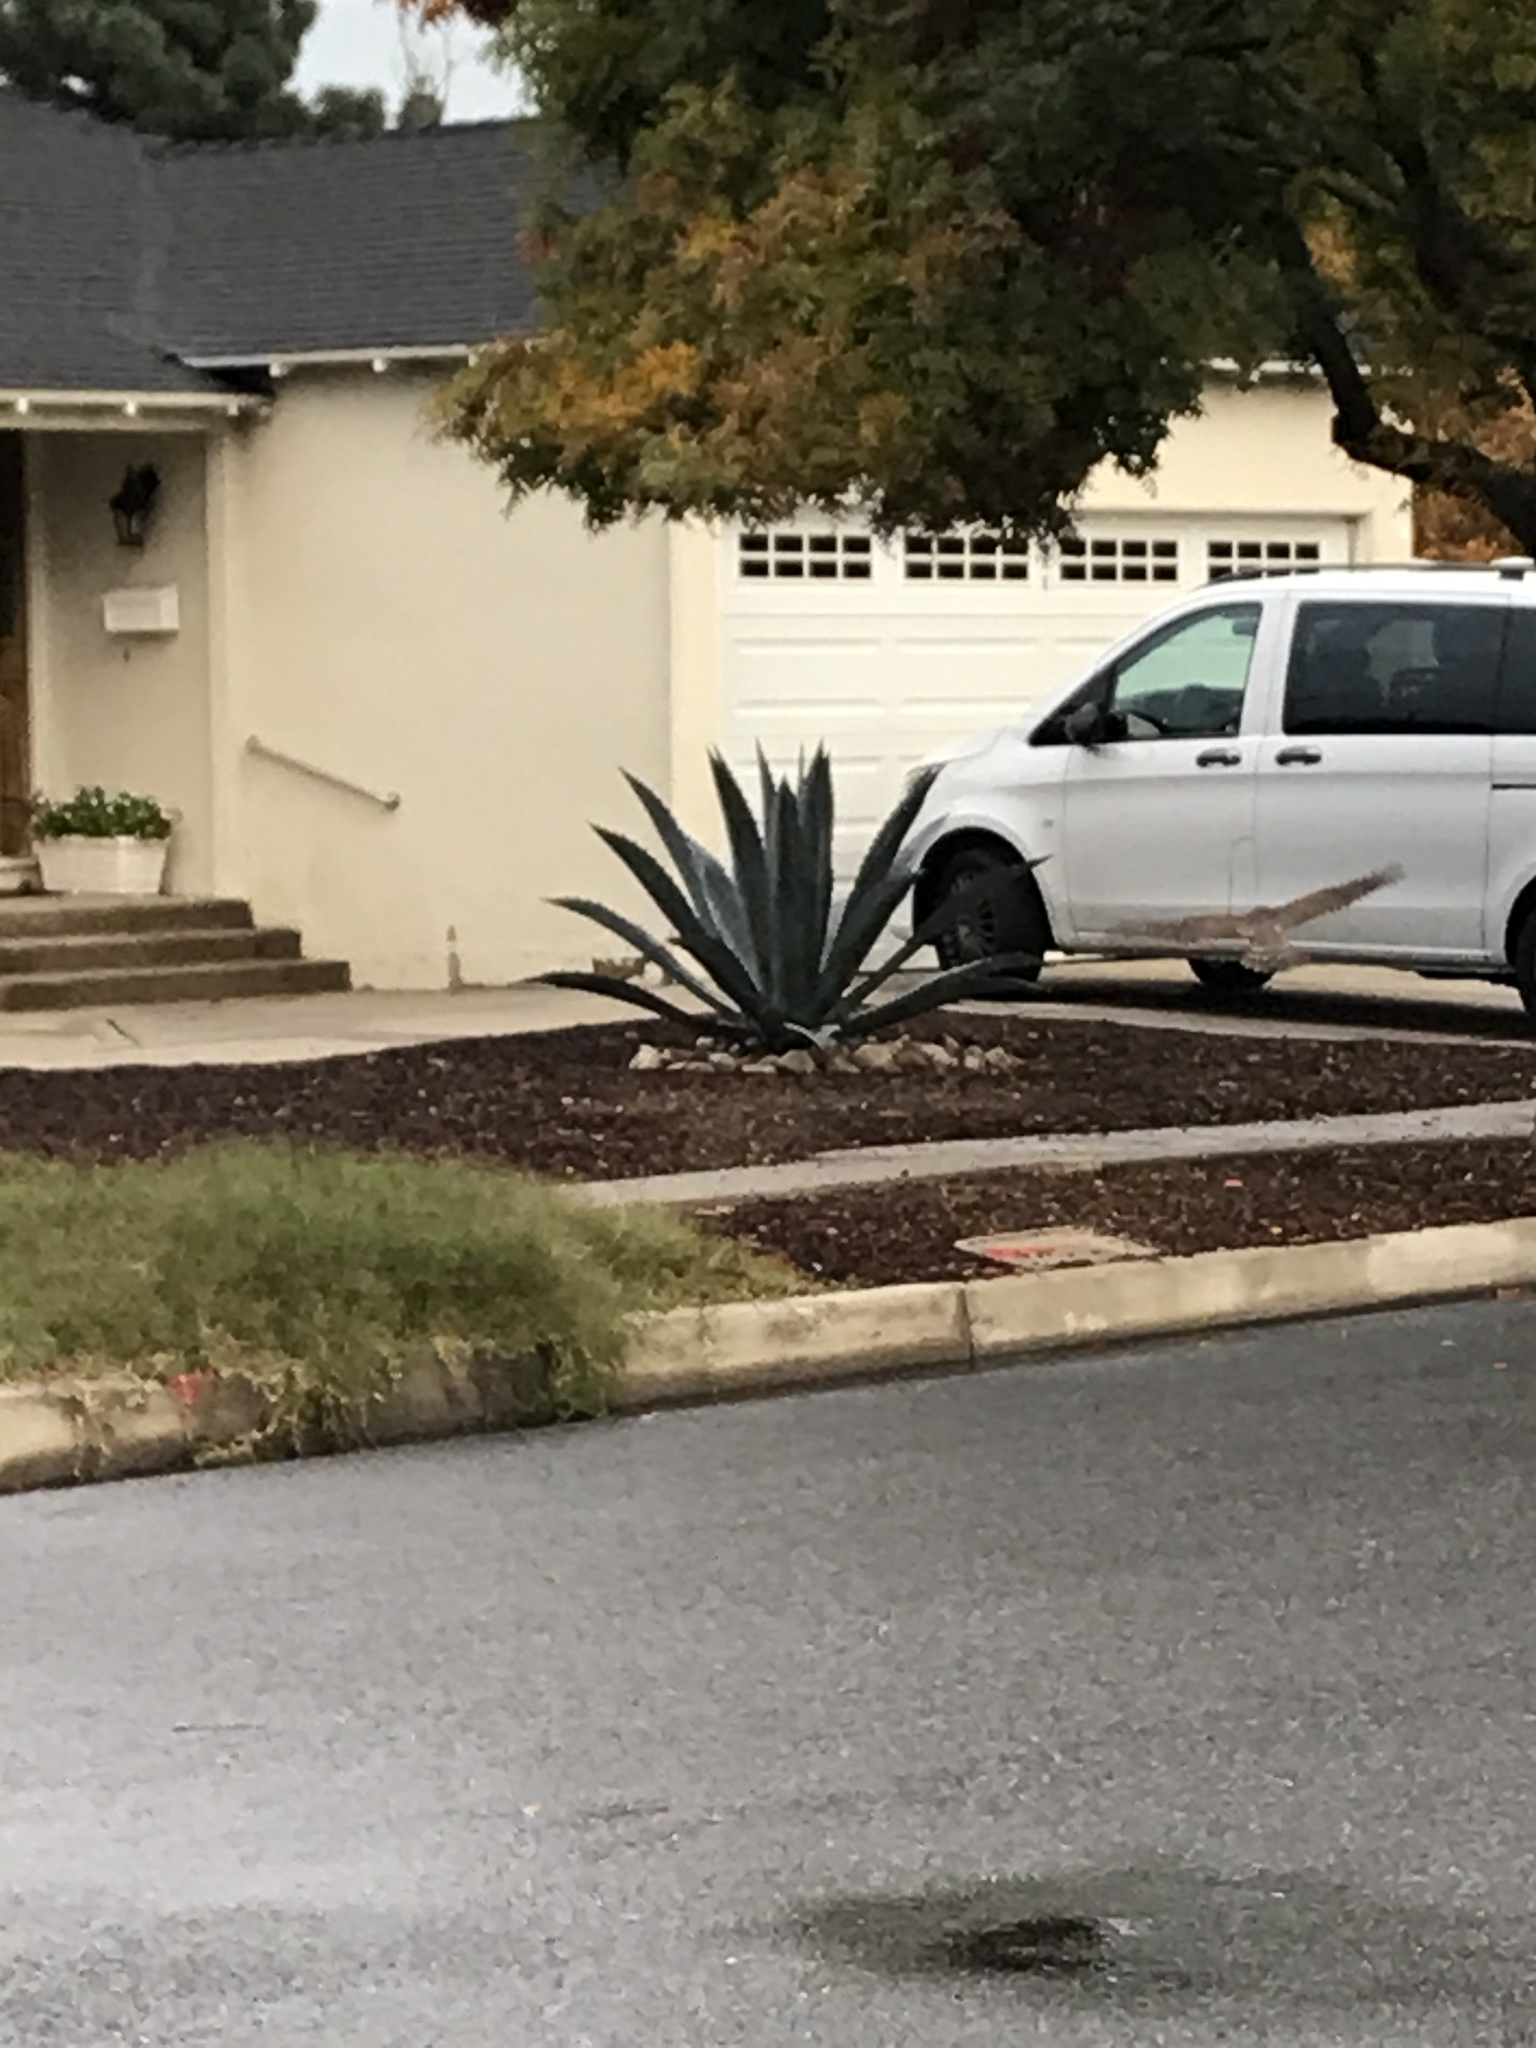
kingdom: Animalia
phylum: Chordata
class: Aves
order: Accipitriformes
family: Accipitridae
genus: Accipiter
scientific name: Accipiter cooperii
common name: Cooper's hawk
